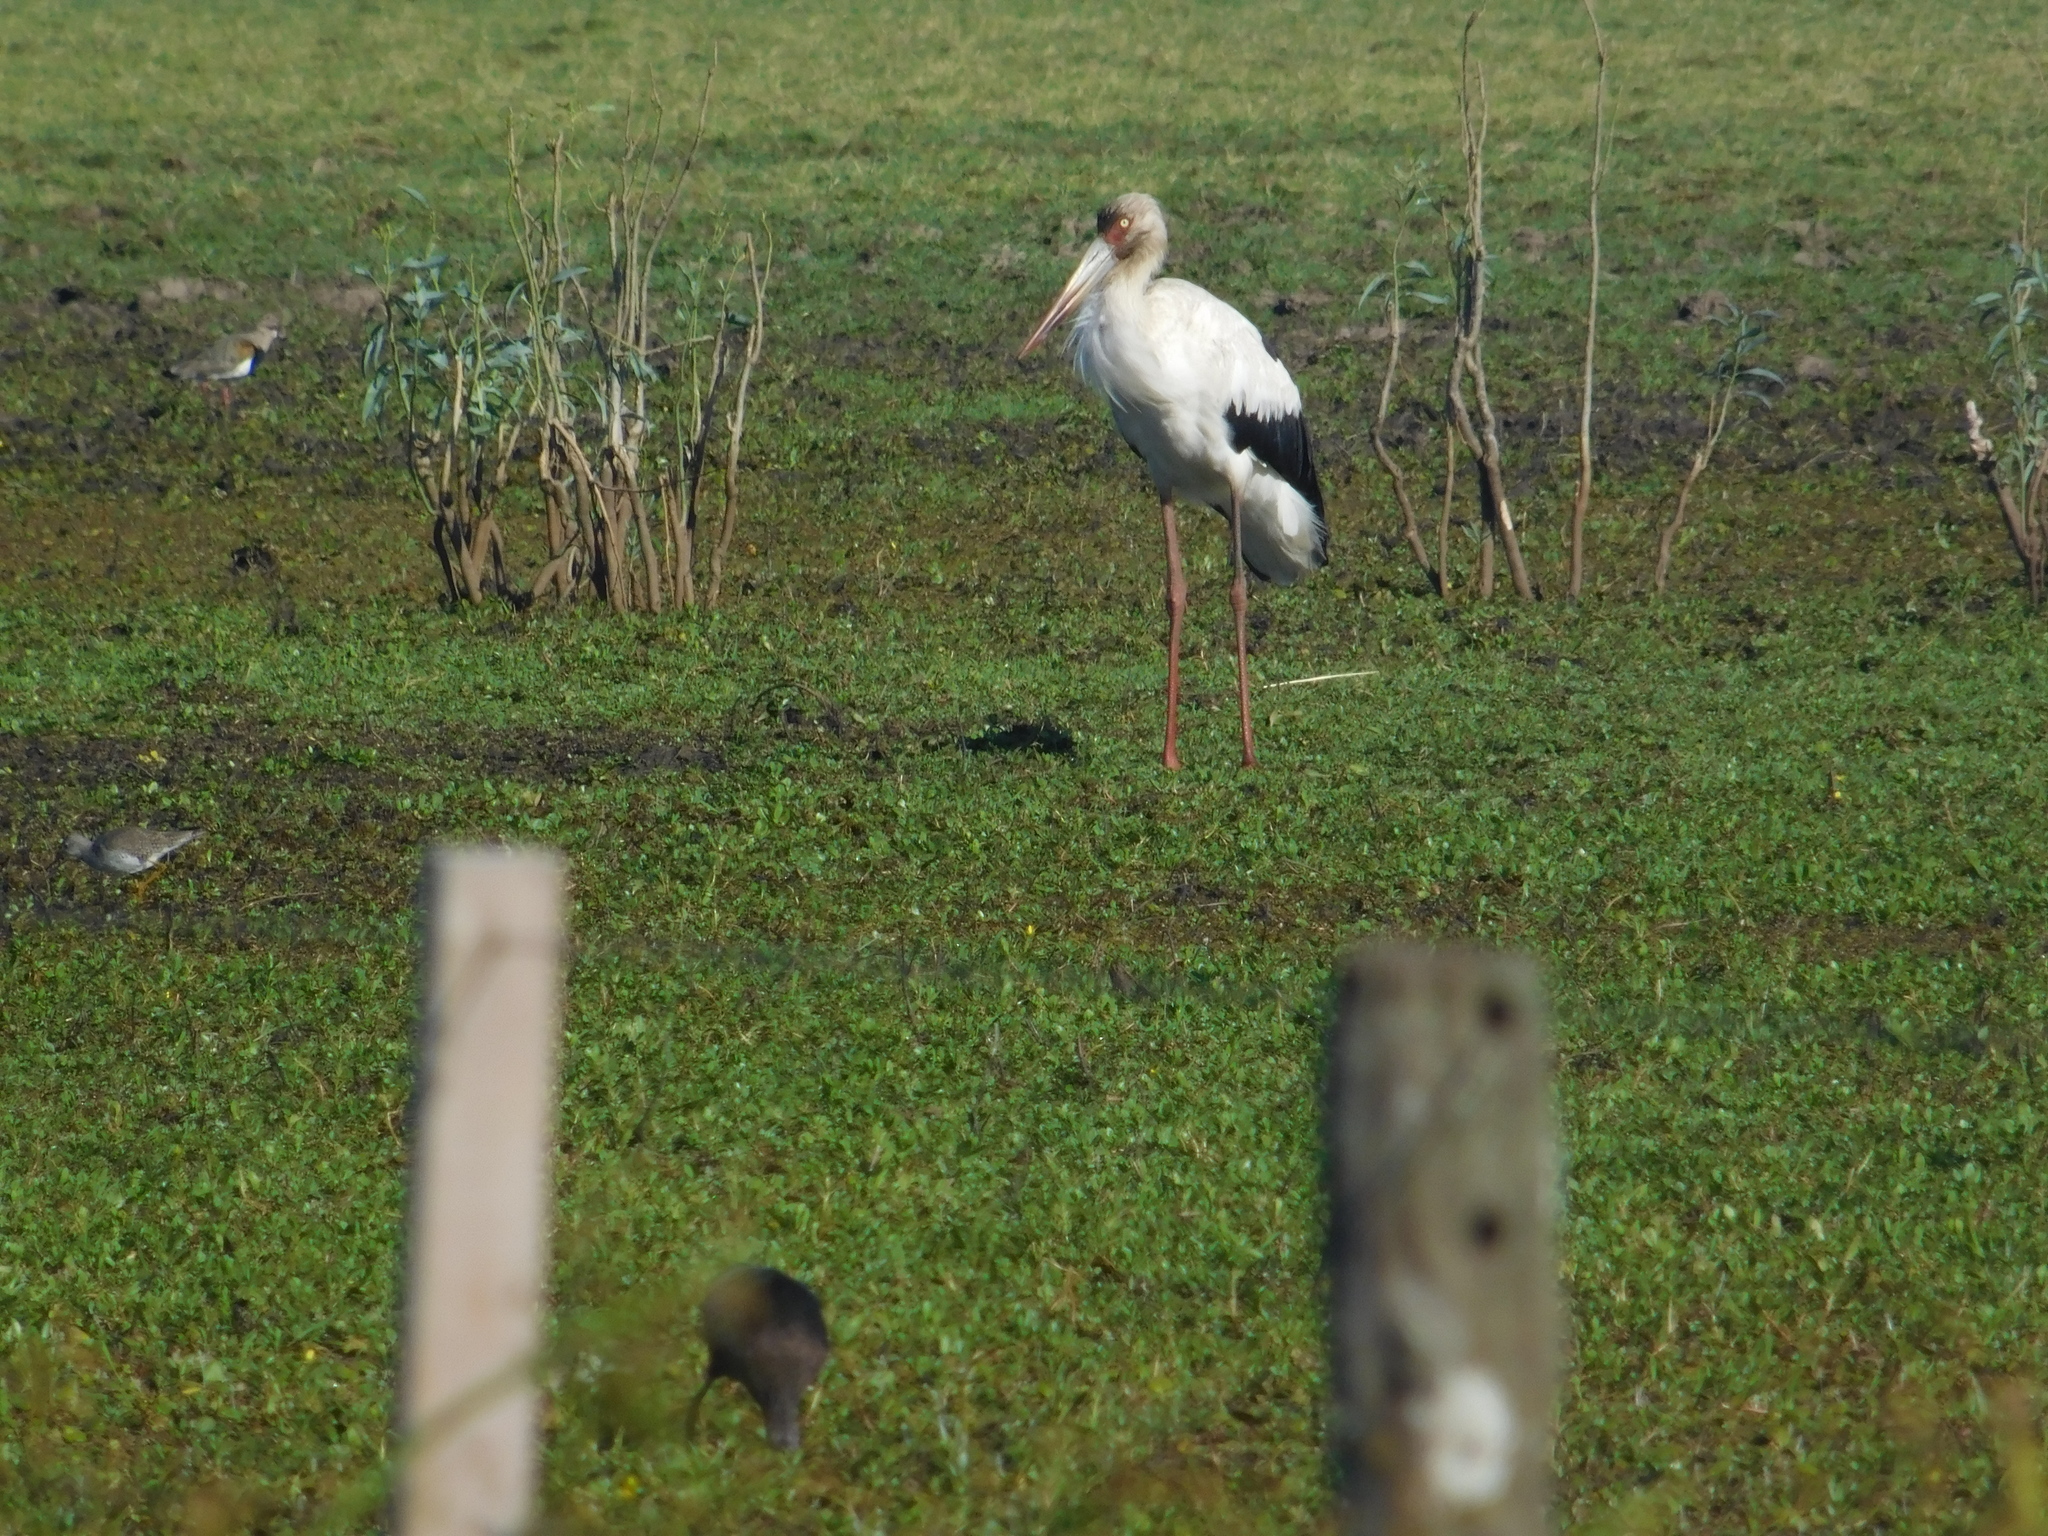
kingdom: Animalia
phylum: Chordata
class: Aves
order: Ciconiiformes
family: Ciconiidae
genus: Ciconia
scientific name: Ciconia maguari
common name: Maguari stork
